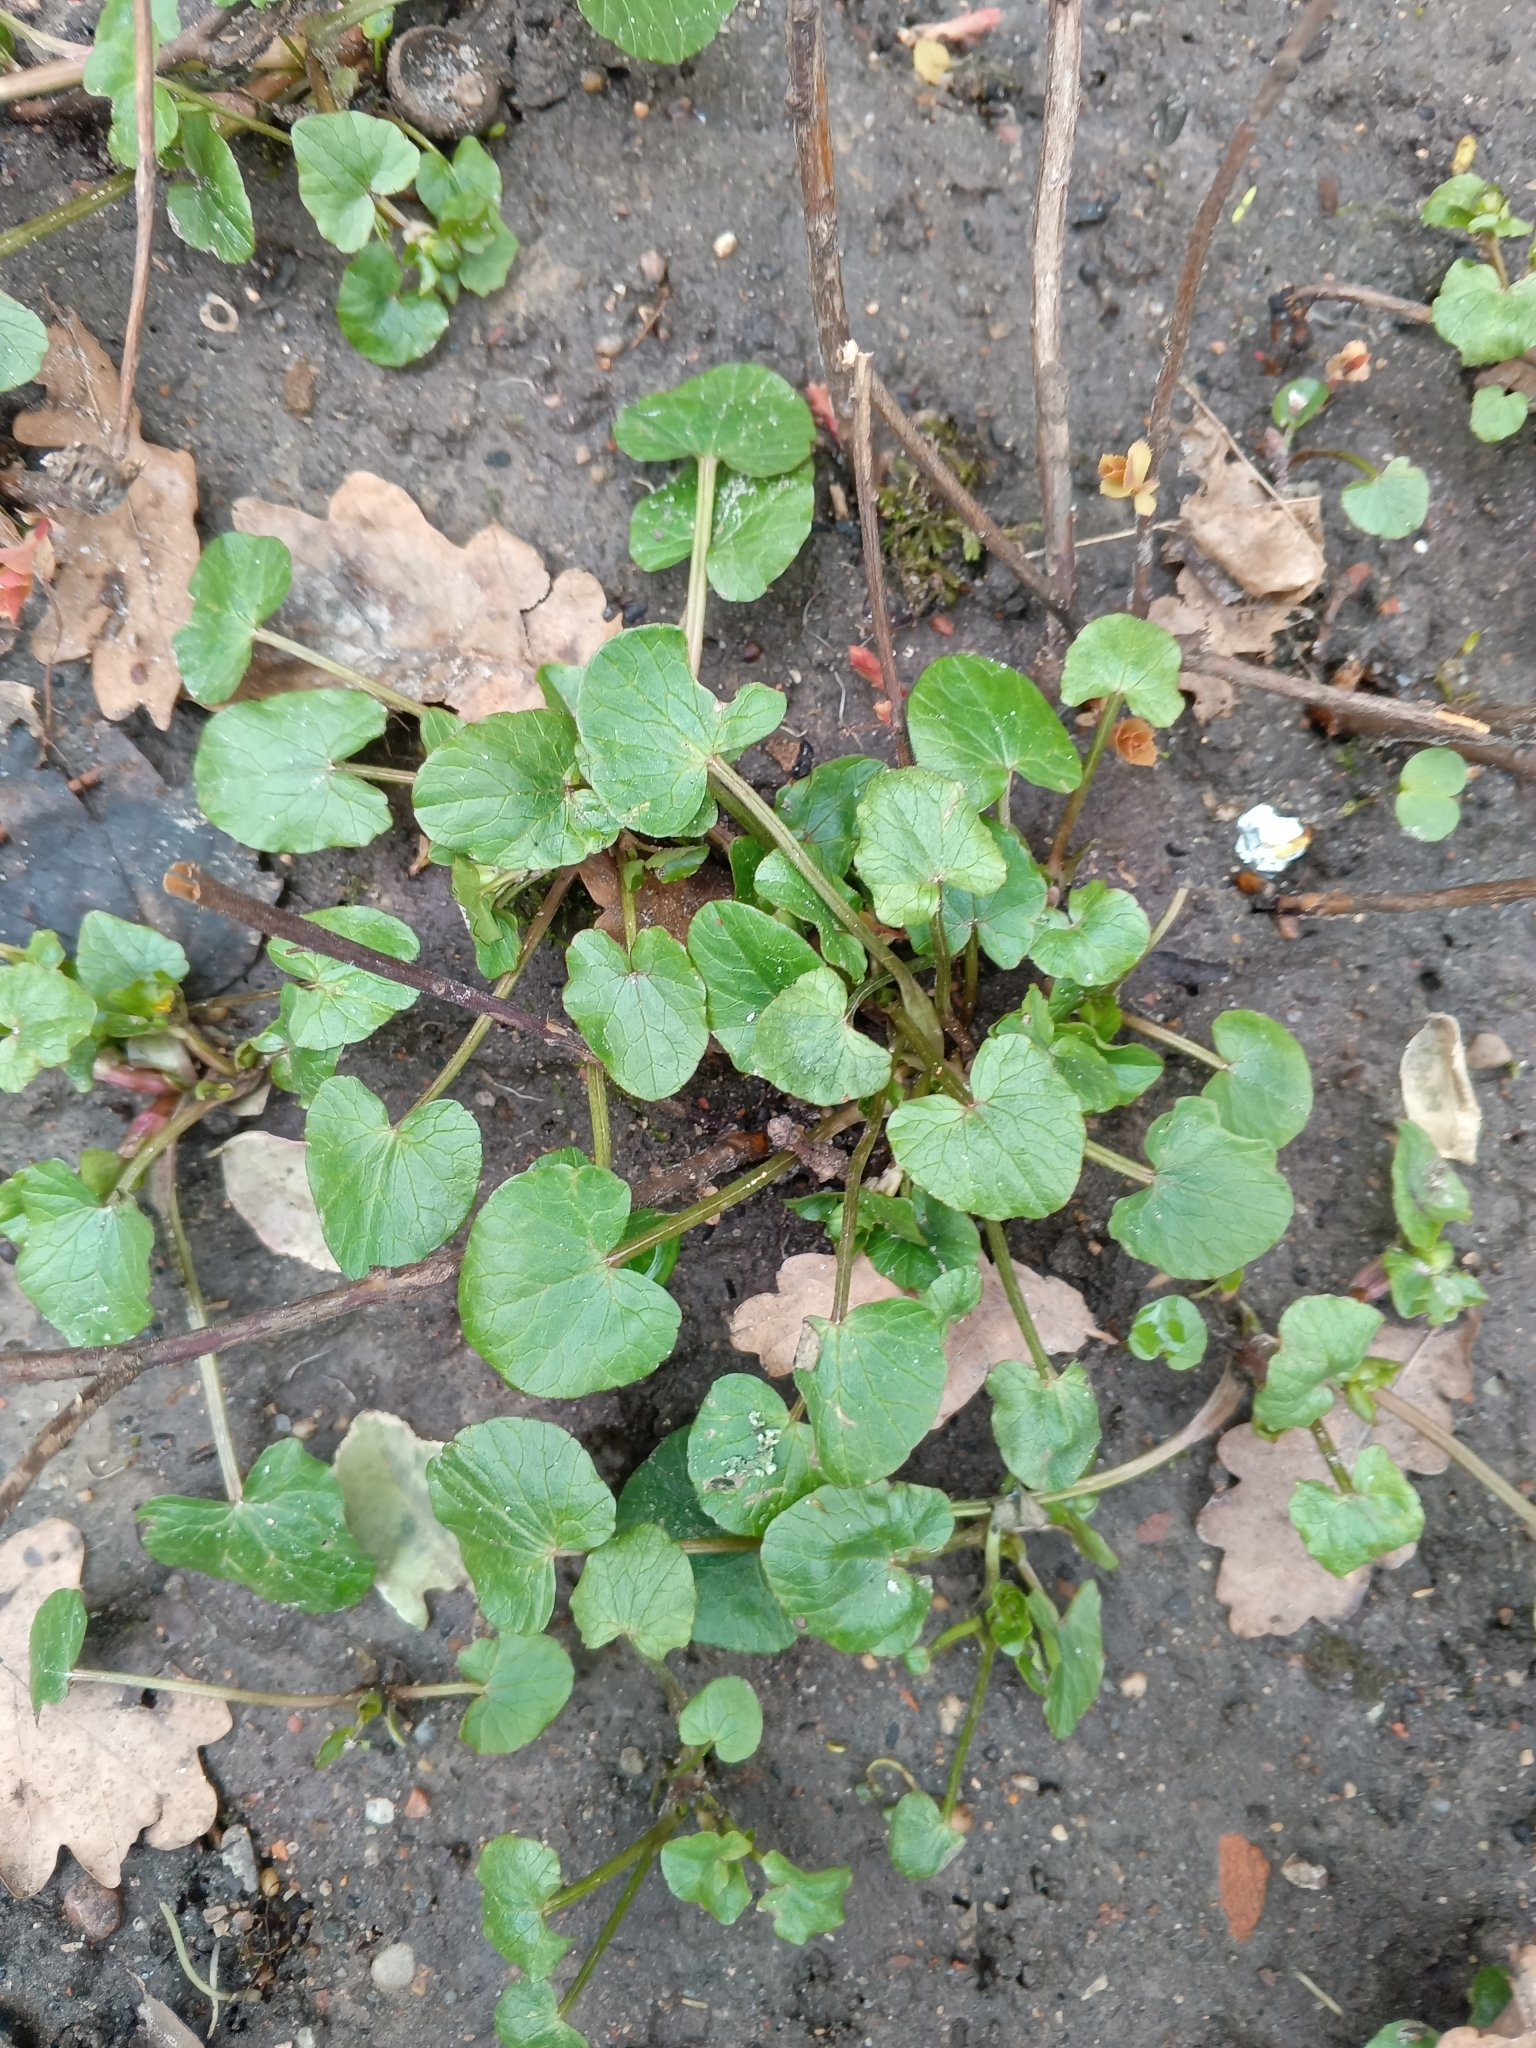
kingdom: Plantae
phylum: Tracheophyta
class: Magnoliopsida
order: Ranunculales
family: Ranunculaceae
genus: Ficaria
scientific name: Ficaria verna
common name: Lesser celandine
